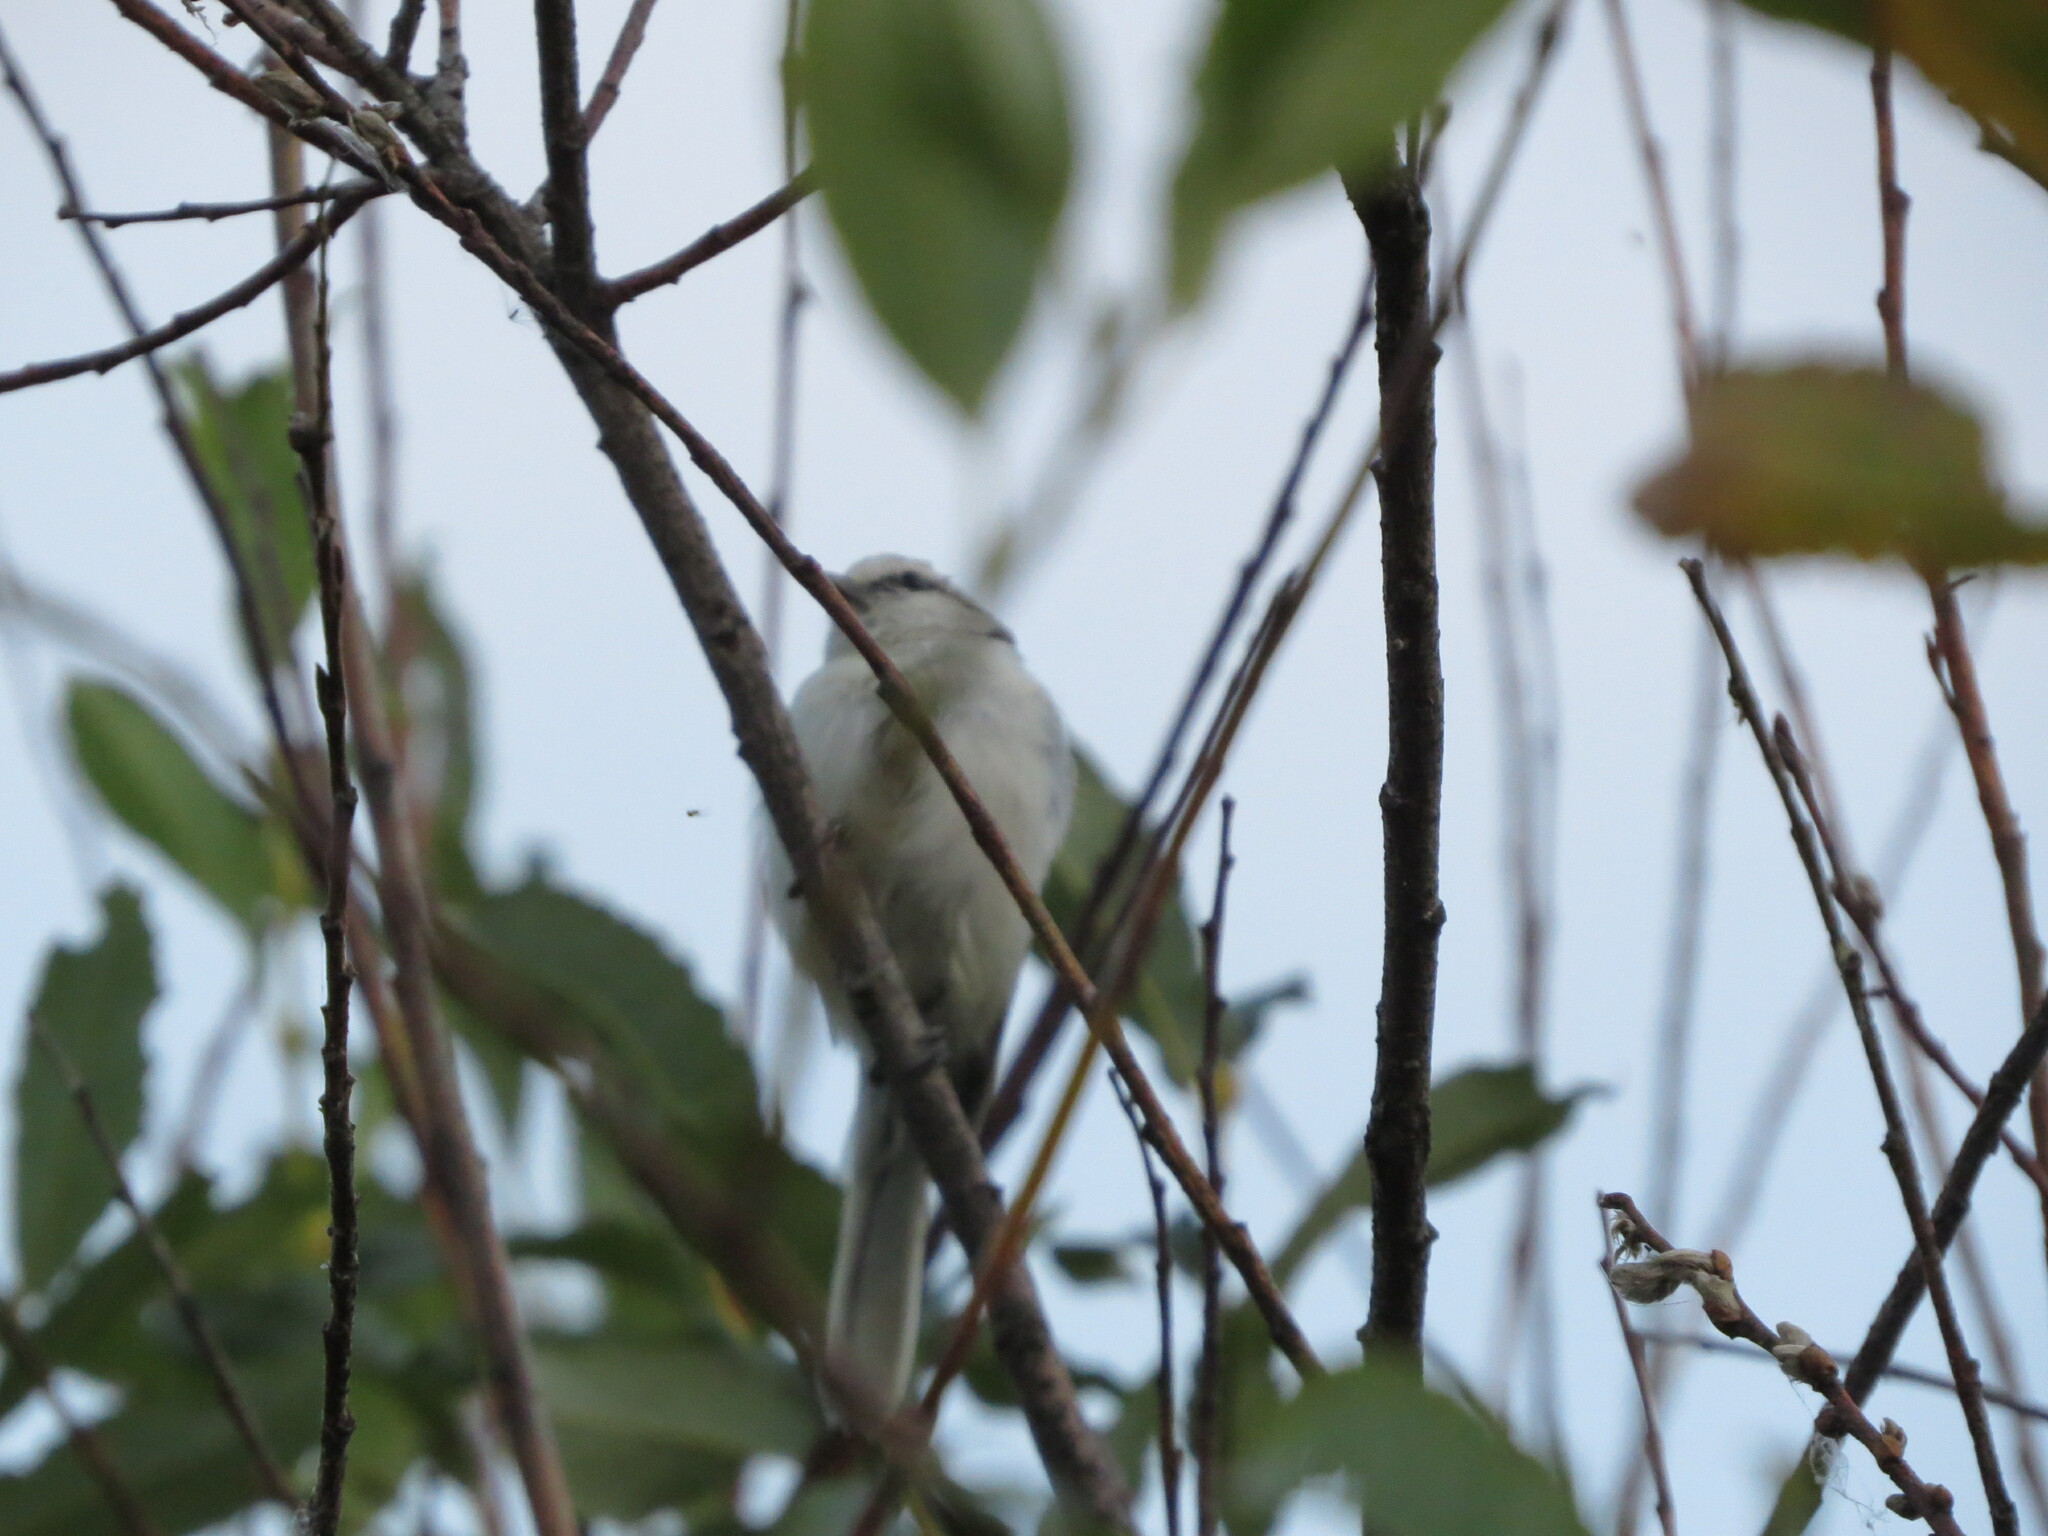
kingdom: Animalia
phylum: Chordata
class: Aves
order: Passeriformes
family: Paridae
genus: Cyanistes
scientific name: Cyanistes cyanus
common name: Azure tit
